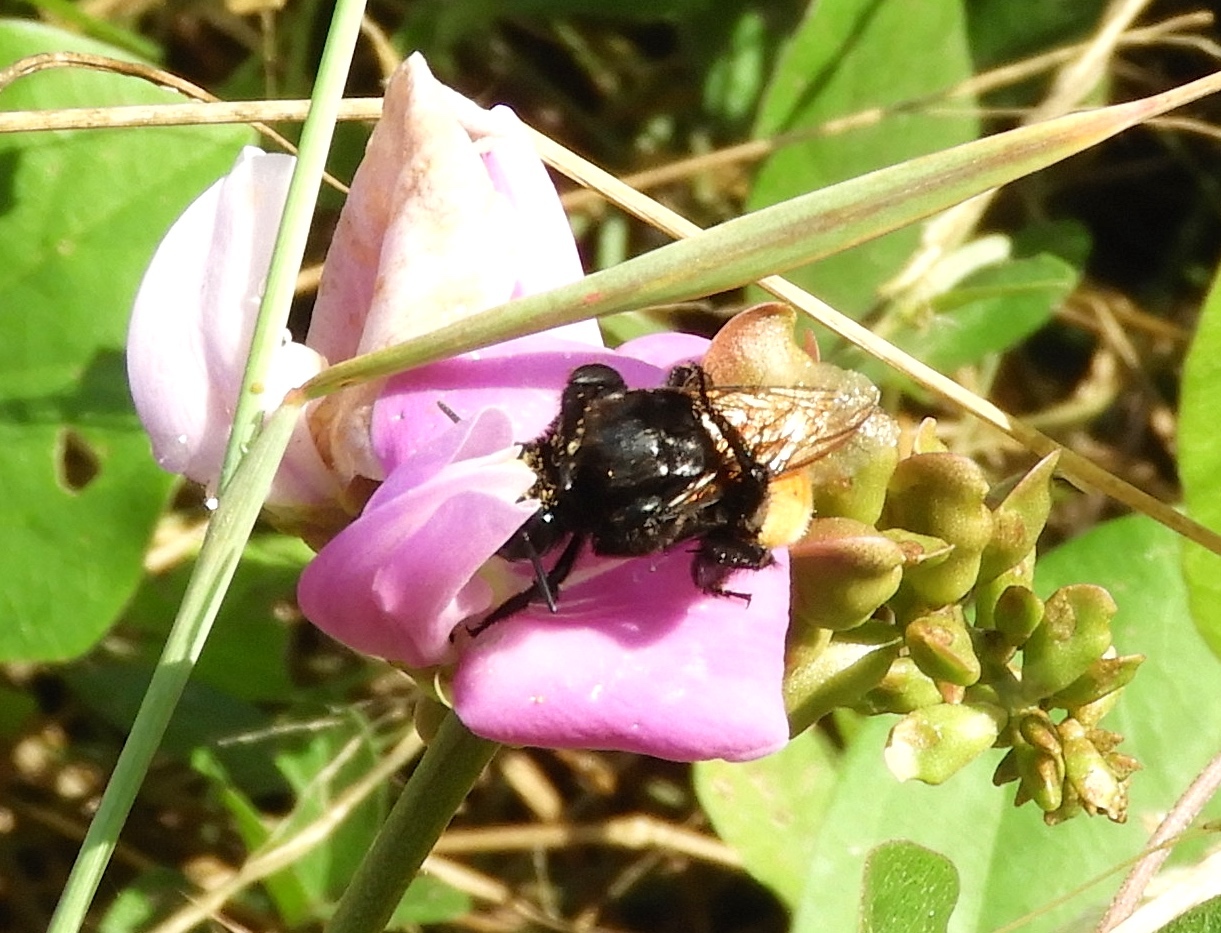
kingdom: Animalia
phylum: Arthropoda
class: Insecta
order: Hymenoptera
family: Apidae
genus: Eulaema
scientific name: Eulaema polychroma
